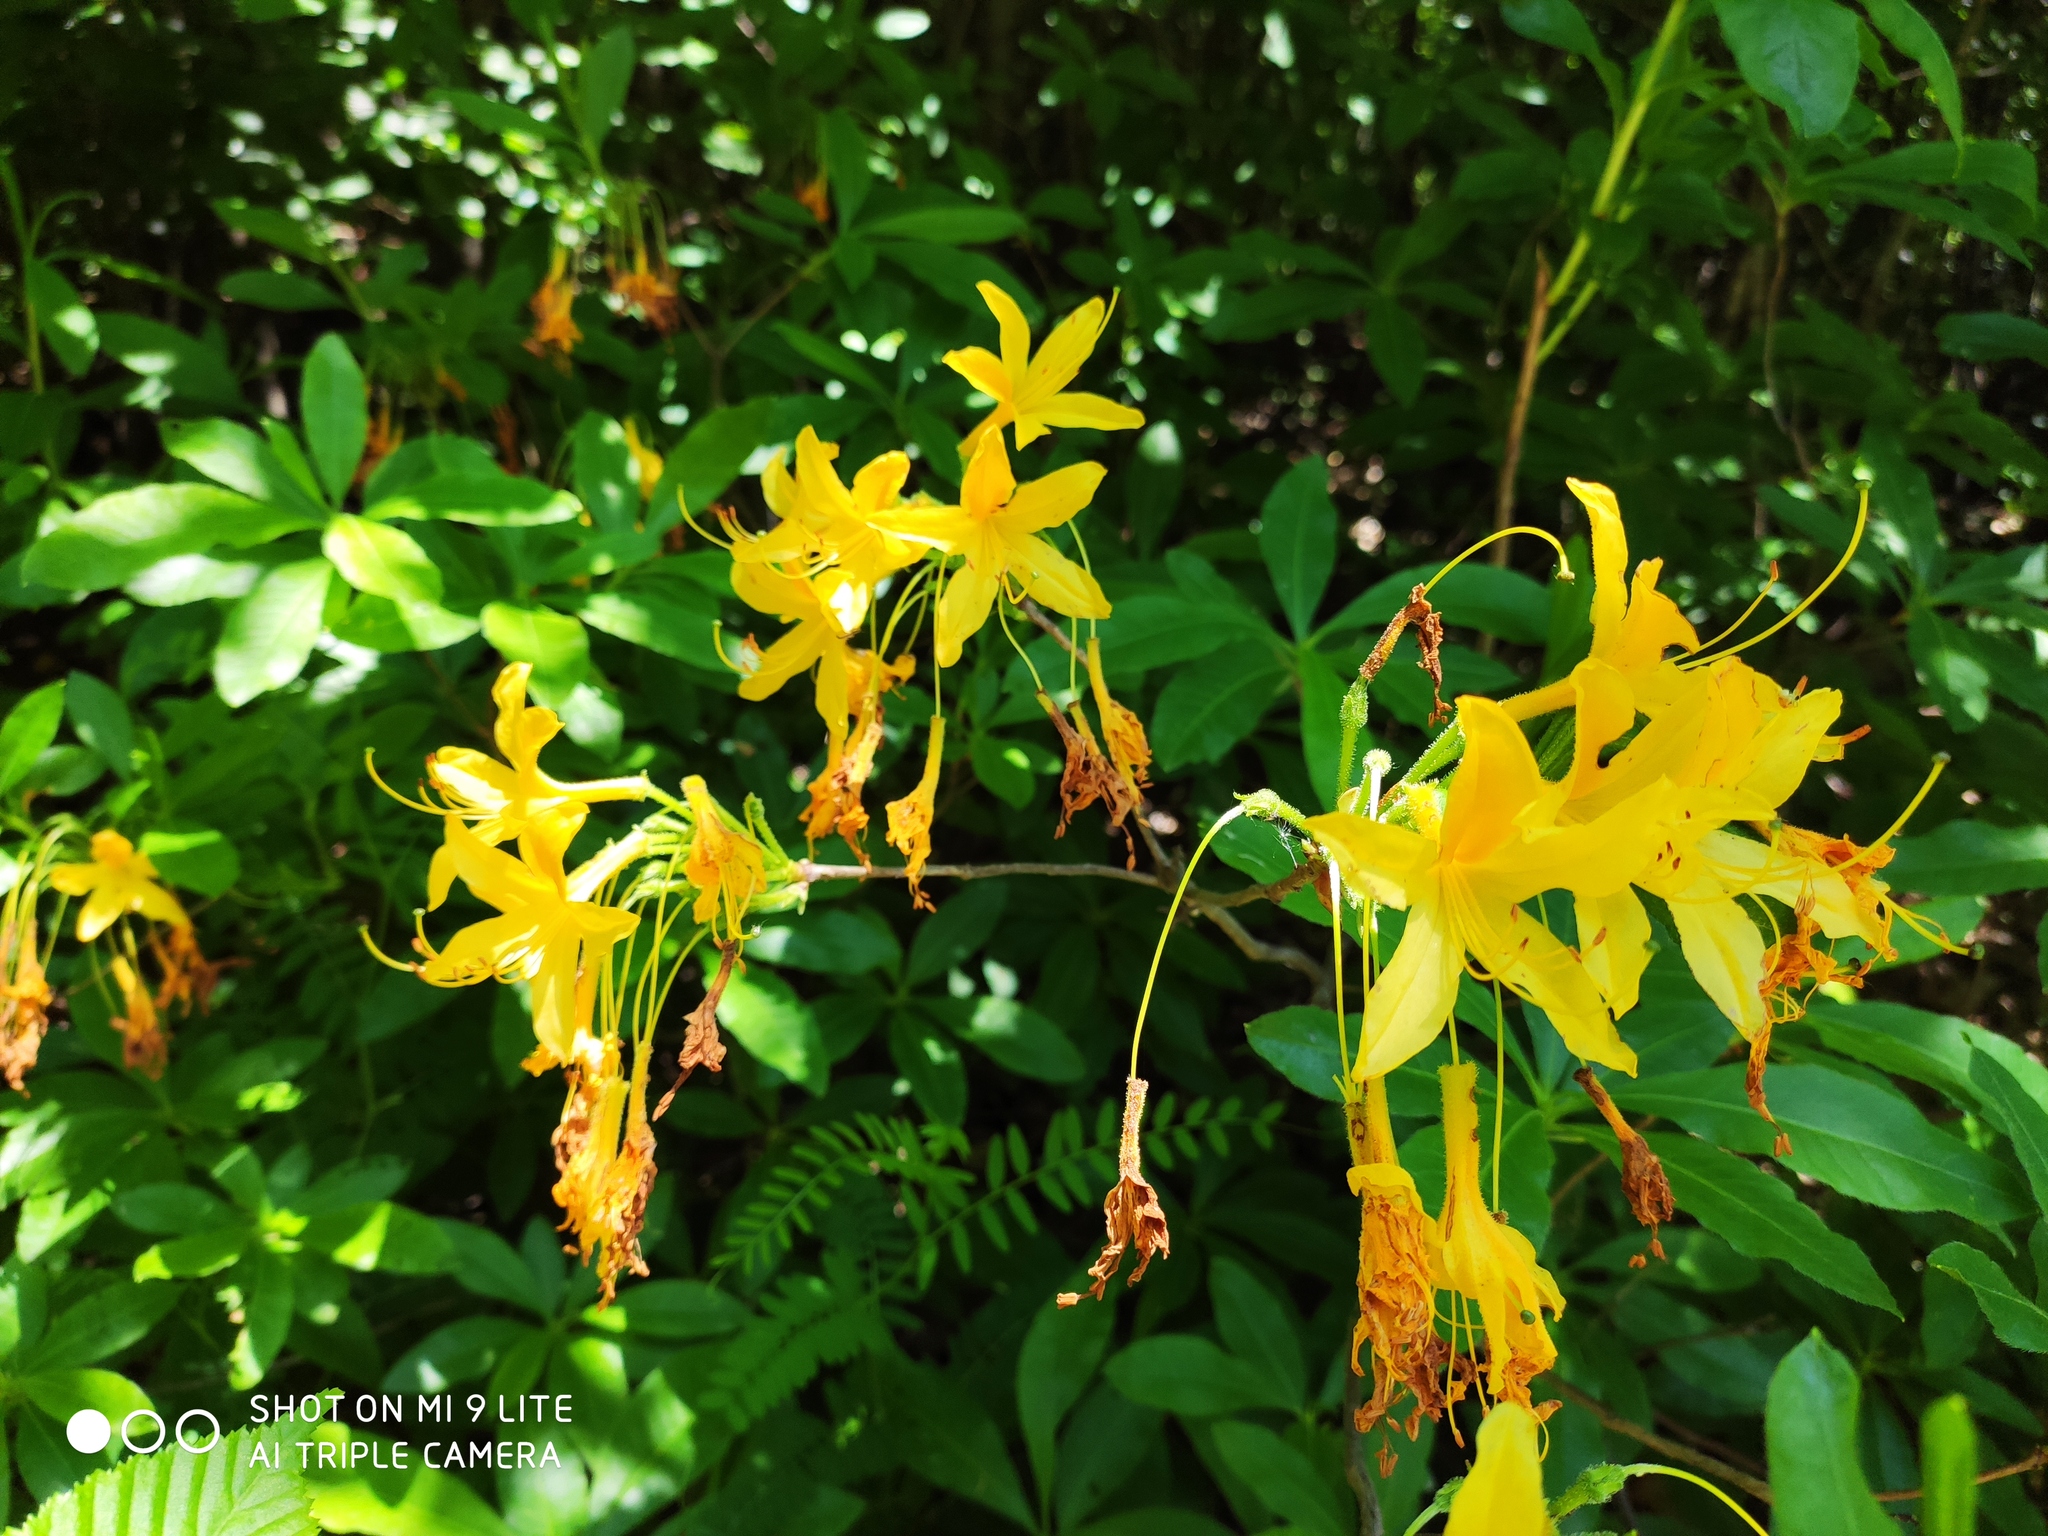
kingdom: Plantae
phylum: Tracheophyta
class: Magnoliopsida
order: Ericales
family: Ericaceae
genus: Rhododendron
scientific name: Rhododendron luteum
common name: Yellow azalea
